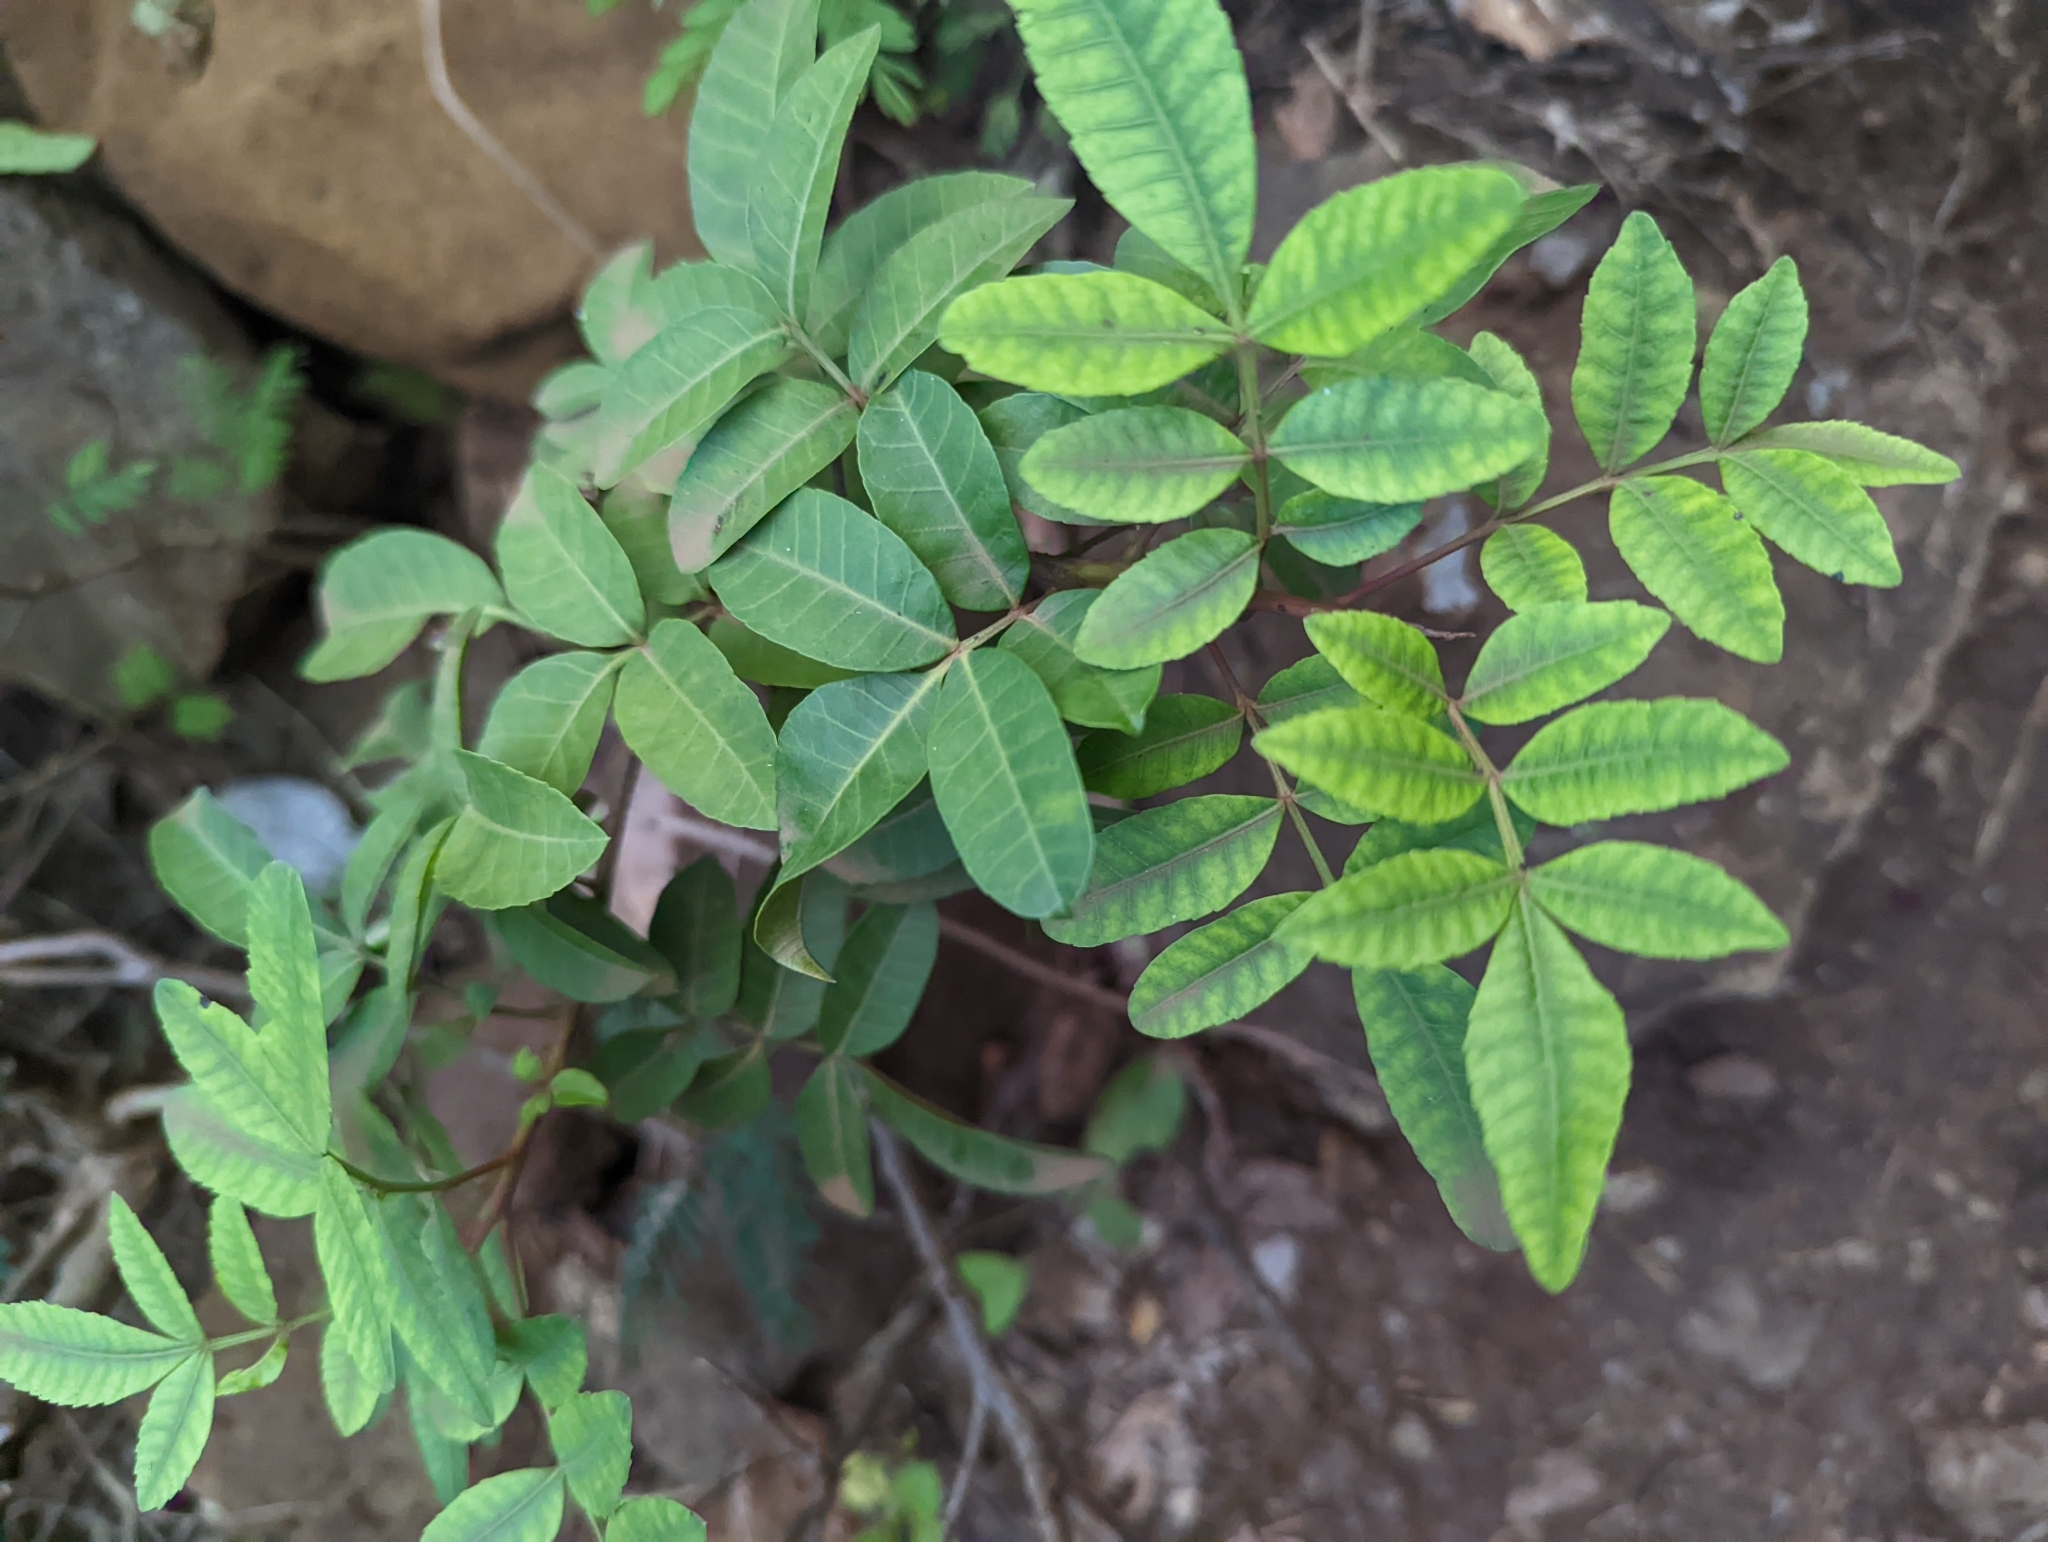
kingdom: Plantae
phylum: Tracheophyta
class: Magnoliopsida
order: Sapindales
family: Anacardiaceae
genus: Schinus
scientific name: Schinus terebinthifolia
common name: Brazilian peppertree
